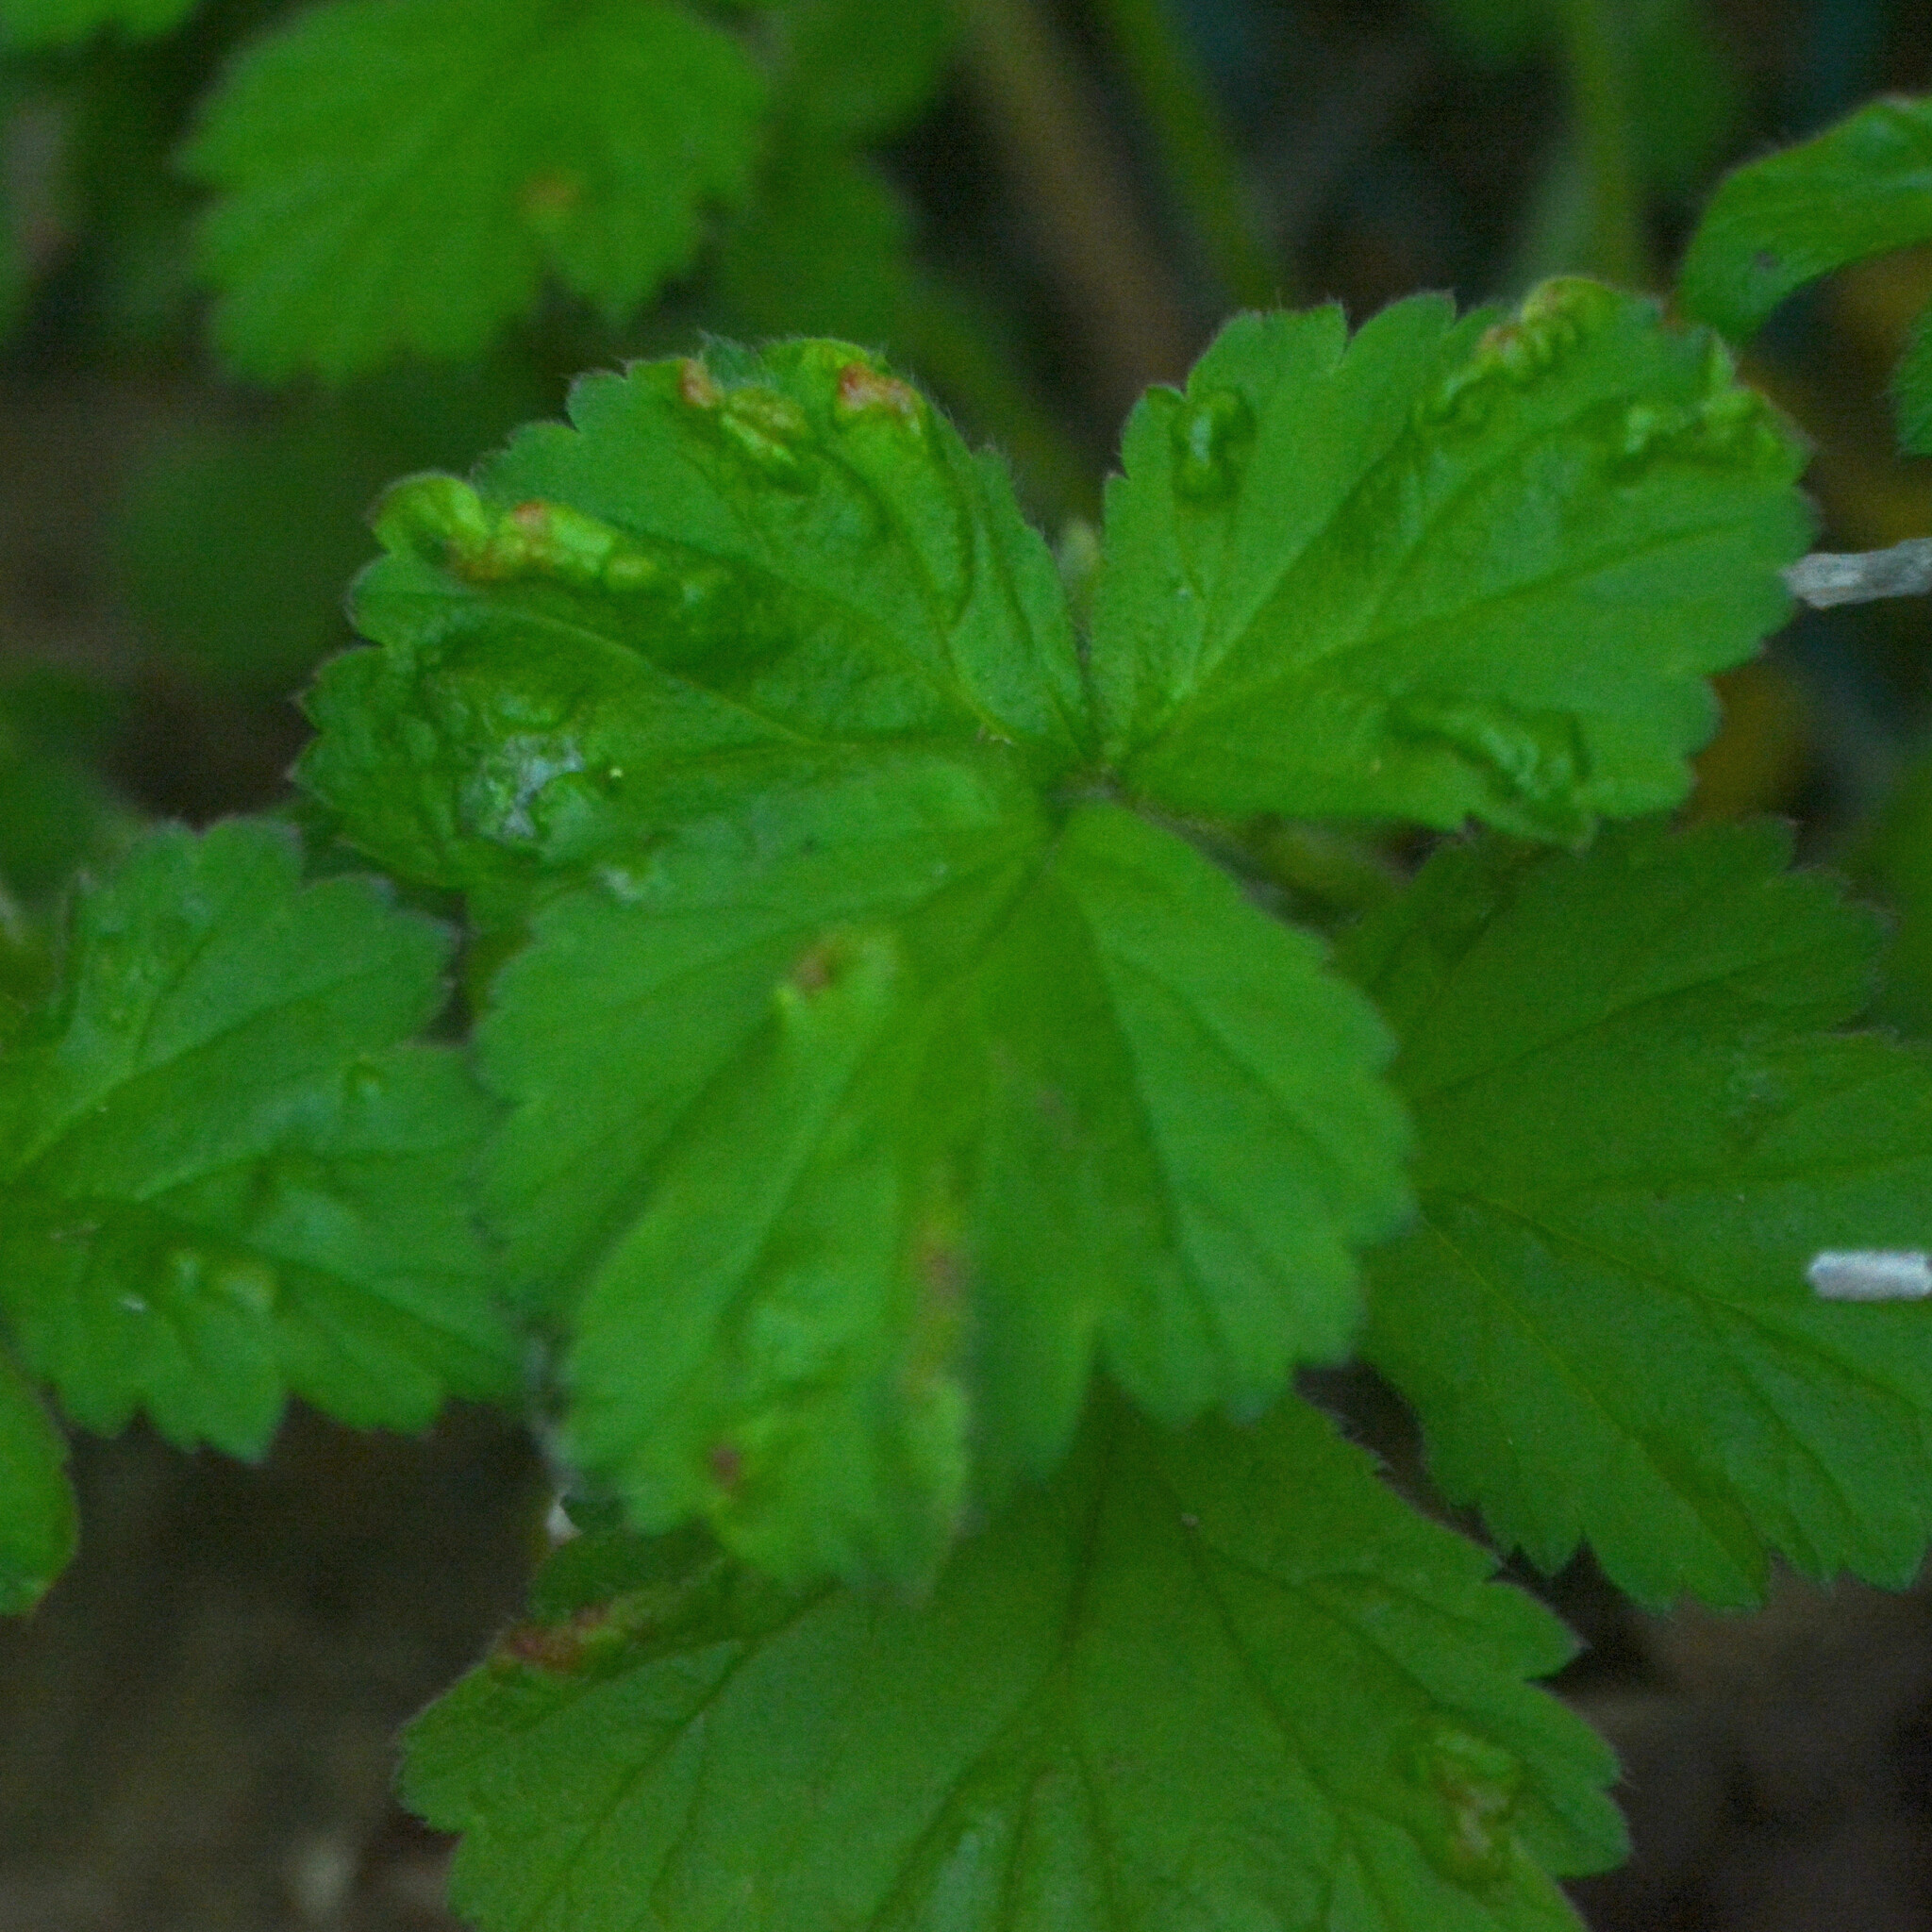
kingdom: Animalia
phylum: Arthropoda
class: Arachnida
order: Trombidiformes
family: Eriophyidae
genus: Cecidophyes
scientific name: Cecidophyes nudus
